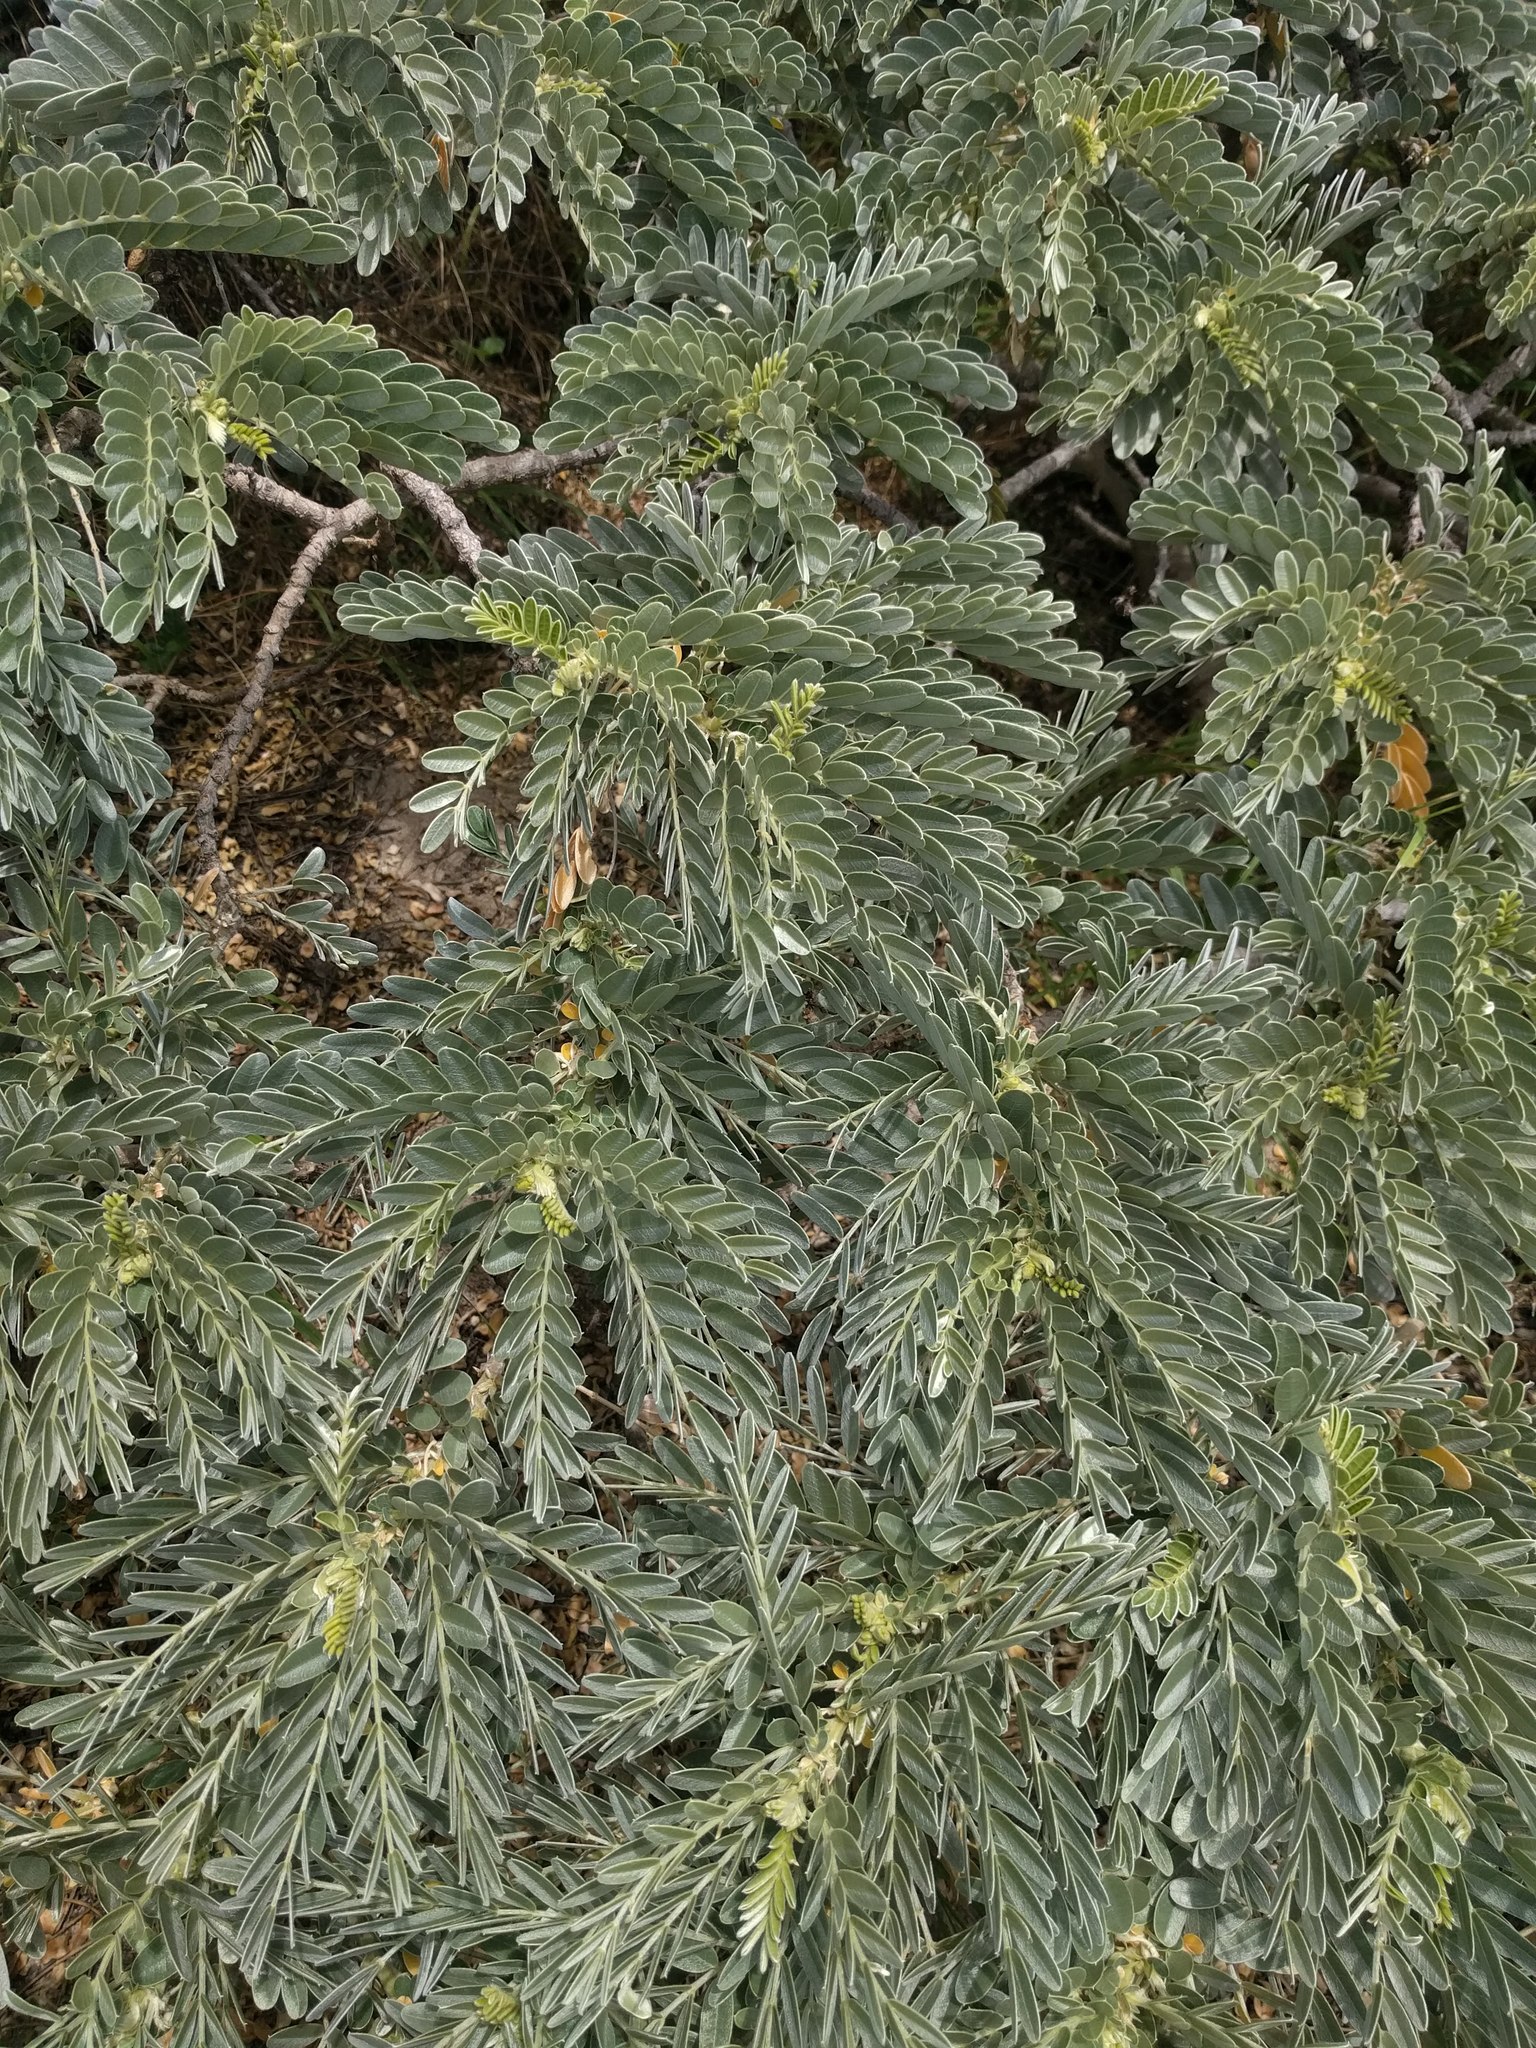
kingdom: Plantae
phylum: Tracheophyta
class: Magnoliopsida
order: Fabales
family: Fabaceae
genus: Sesbania
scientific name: Sesbania tomentosa
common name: `ohai
